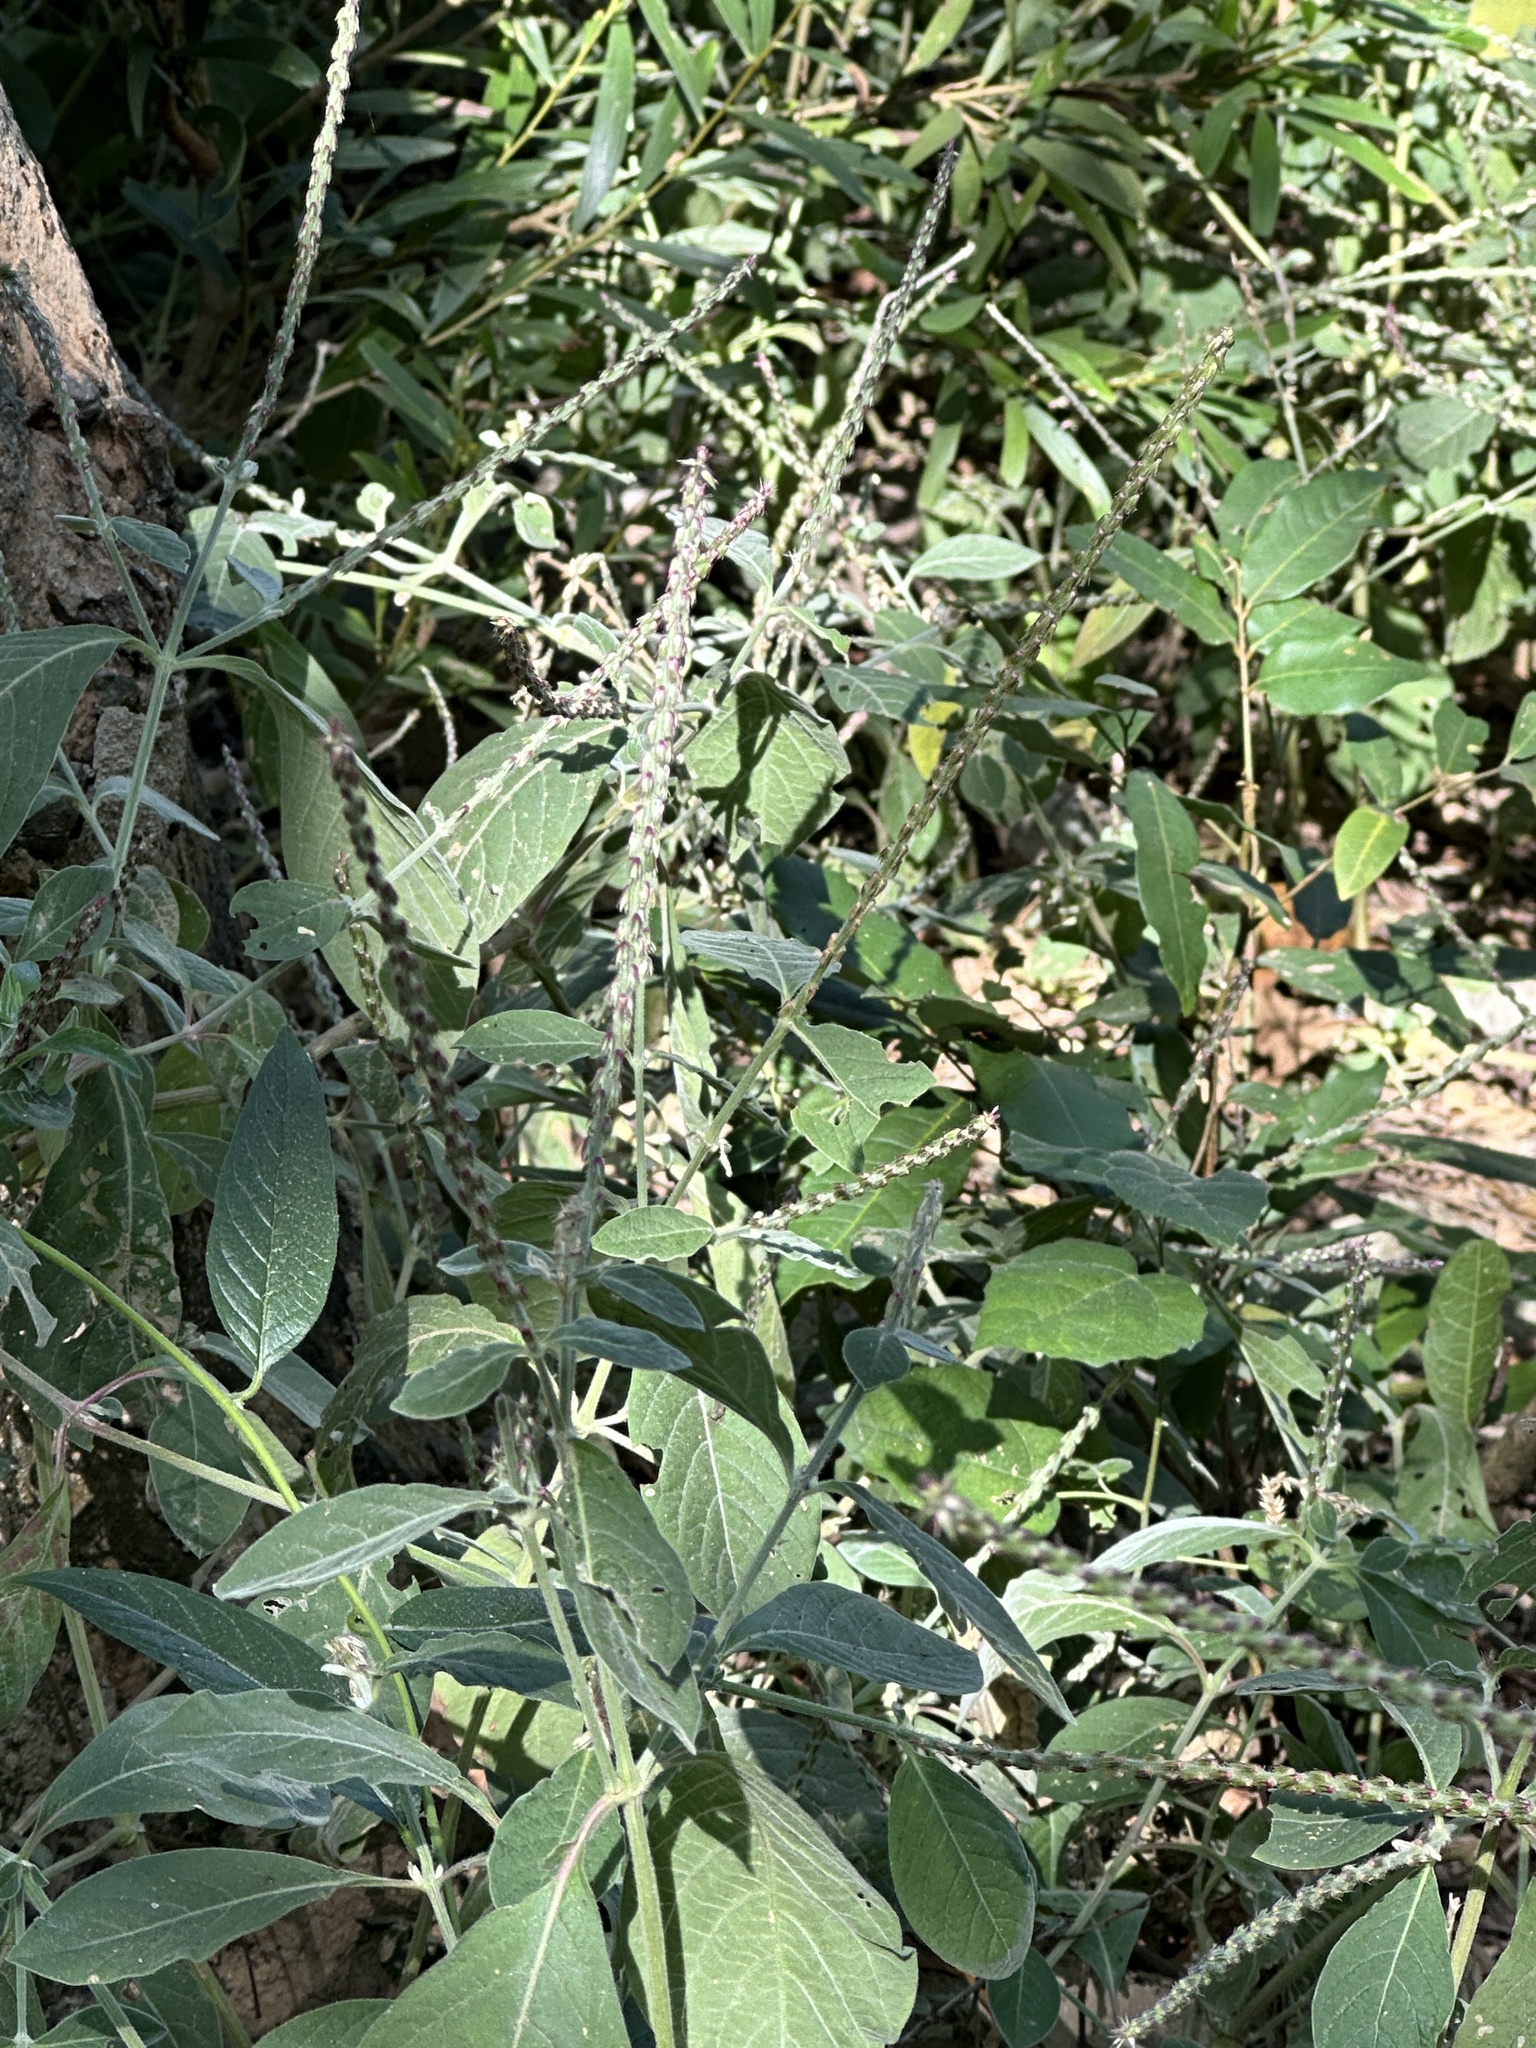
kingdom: Plantae
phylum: Tracheophyta
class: Magnoliopsida
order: Caryophyllales
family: Amaranthaceae
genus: Achyranthes
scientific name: Achyranthes aspera
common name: Devil's horsewhip
